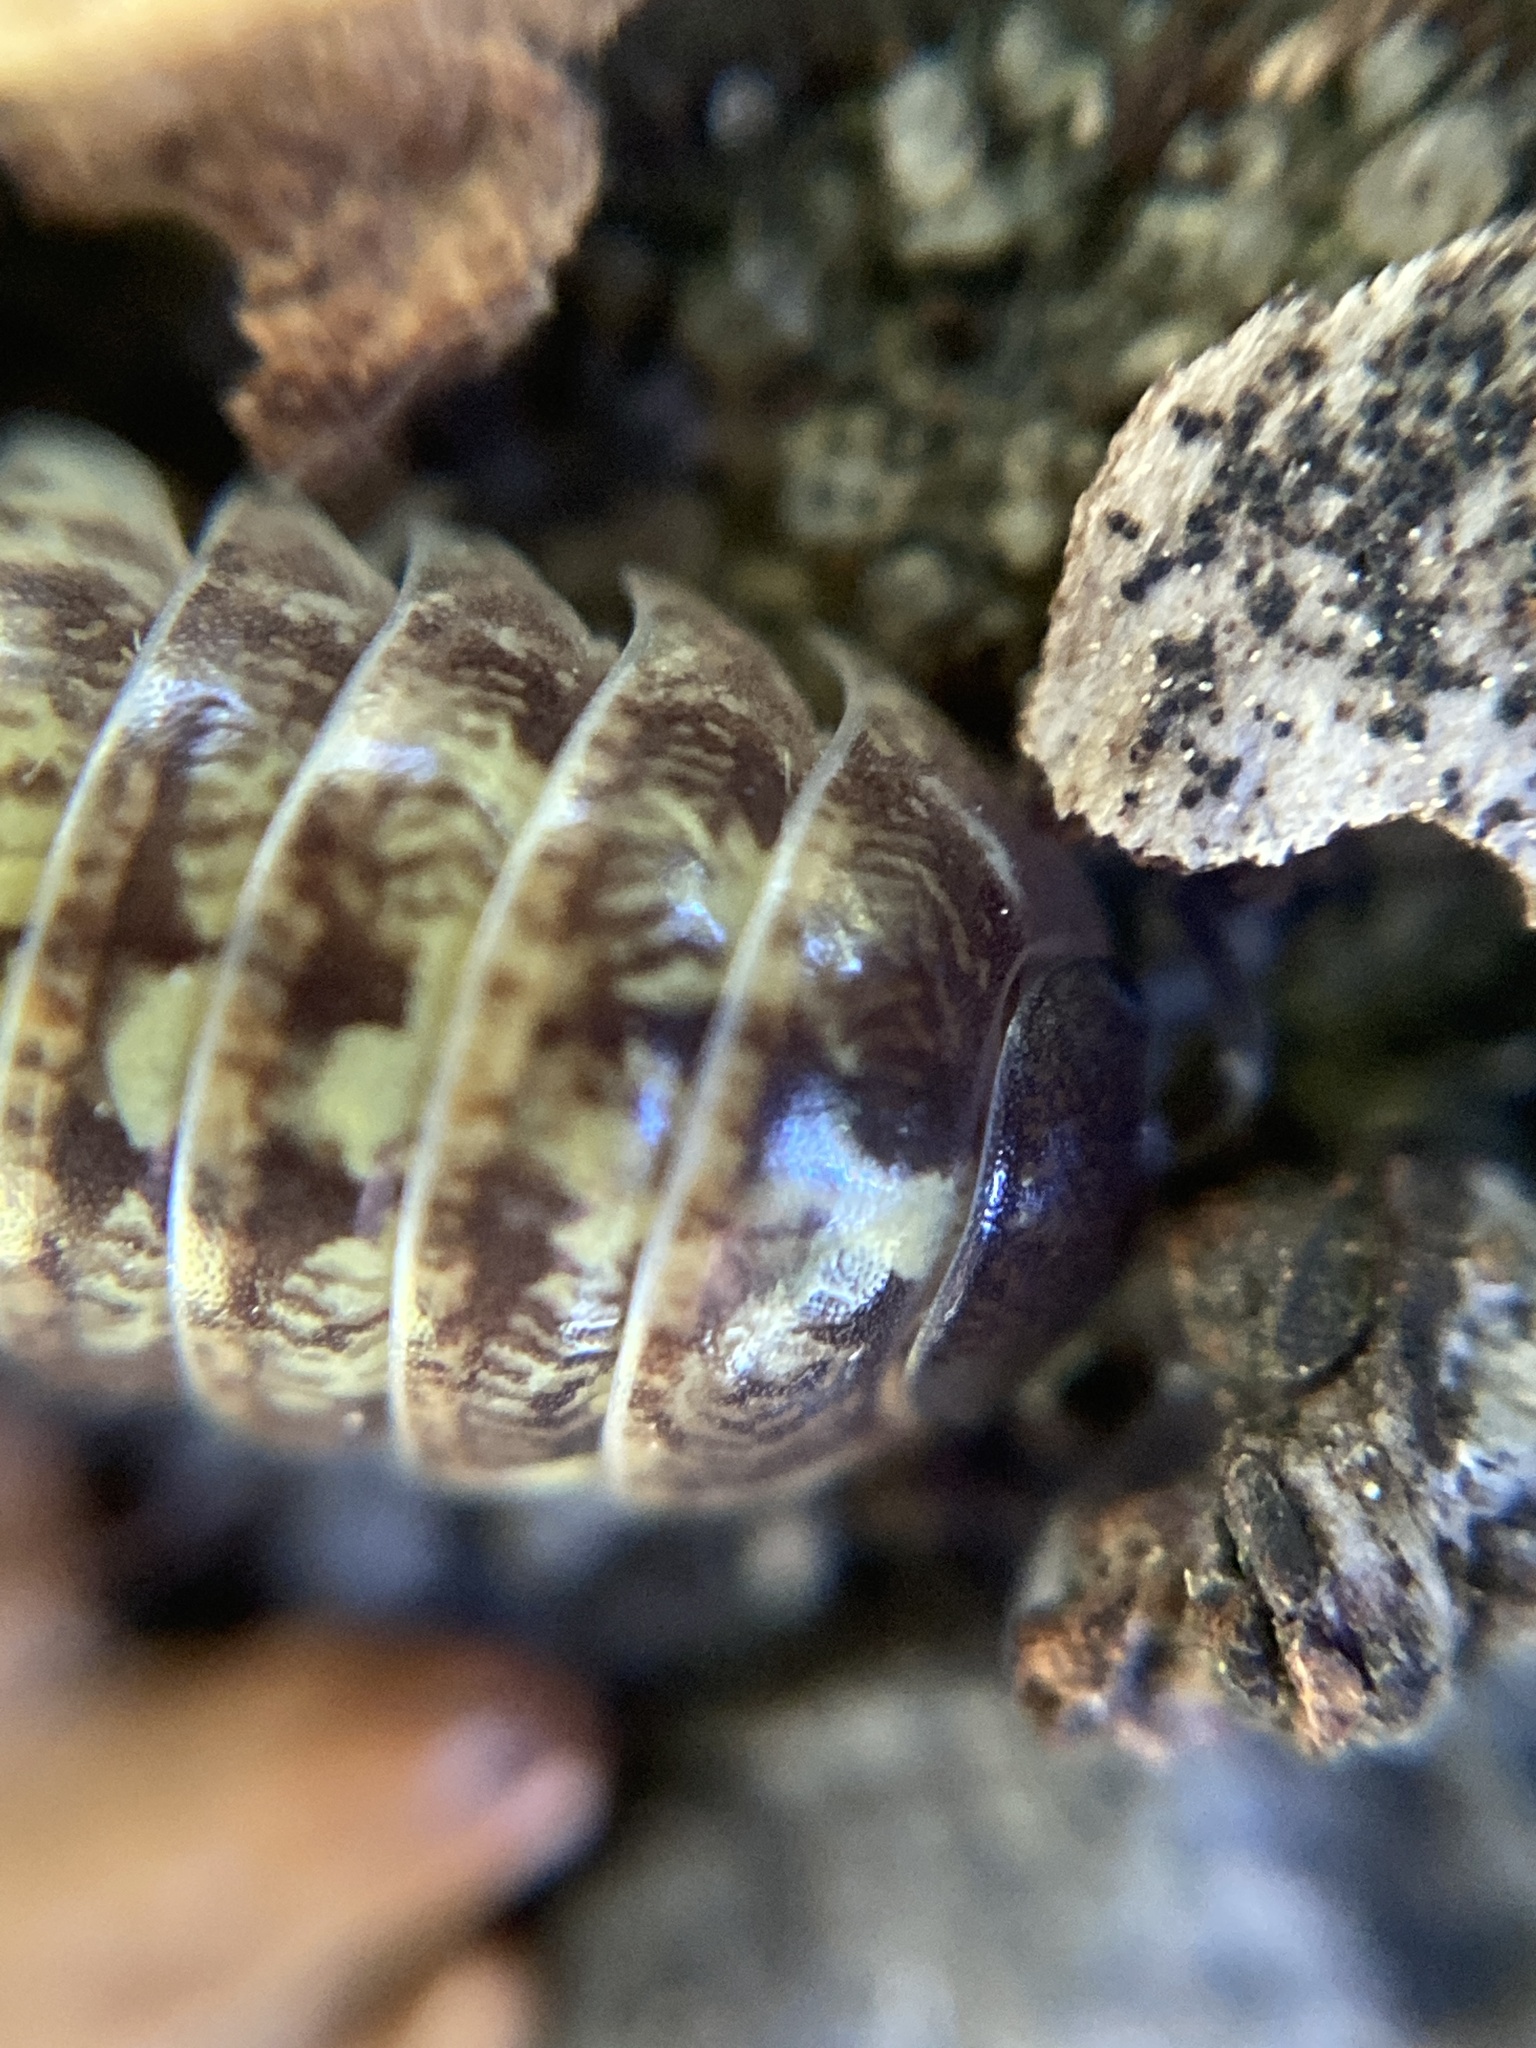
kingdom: Animalia
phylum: Arthropoda
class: Malacostraca
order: Isopoda
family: Armadillidiidae
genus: Armadillidium
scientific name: Armadillidium vulgare
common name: Common pill woodlouse
